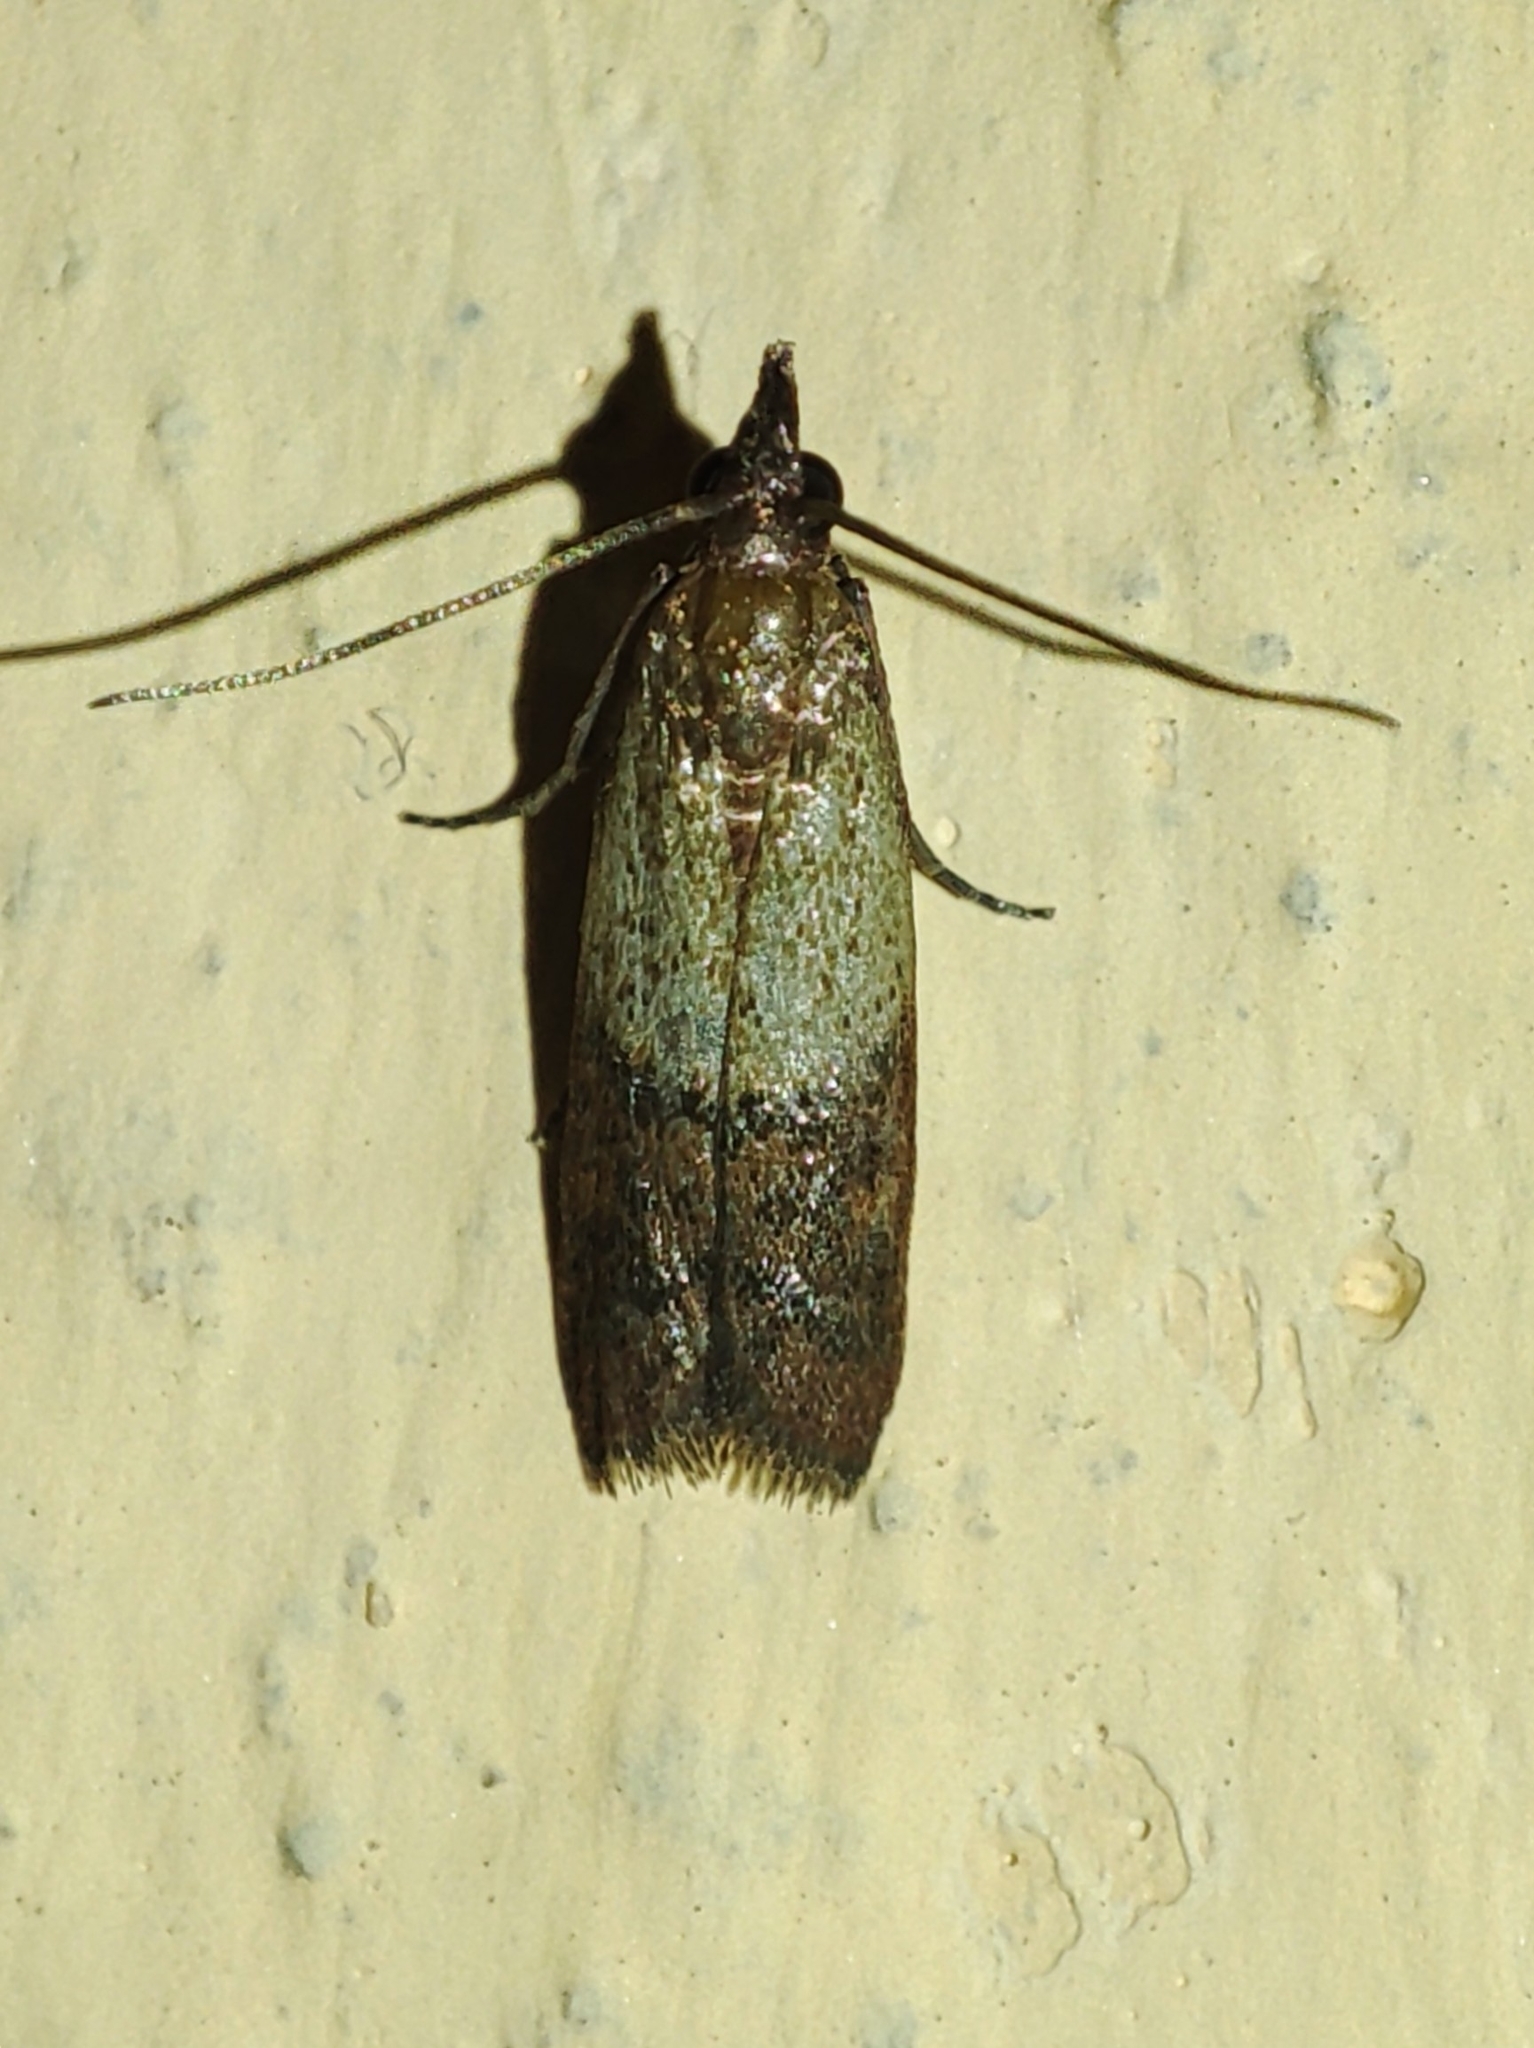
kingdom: Animalia
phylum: Arthropoda
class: Insecta
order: Lepidoptera
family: Pyralidae
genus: Plodia
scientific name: Plodia interpunctella
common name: Indian meal moth
